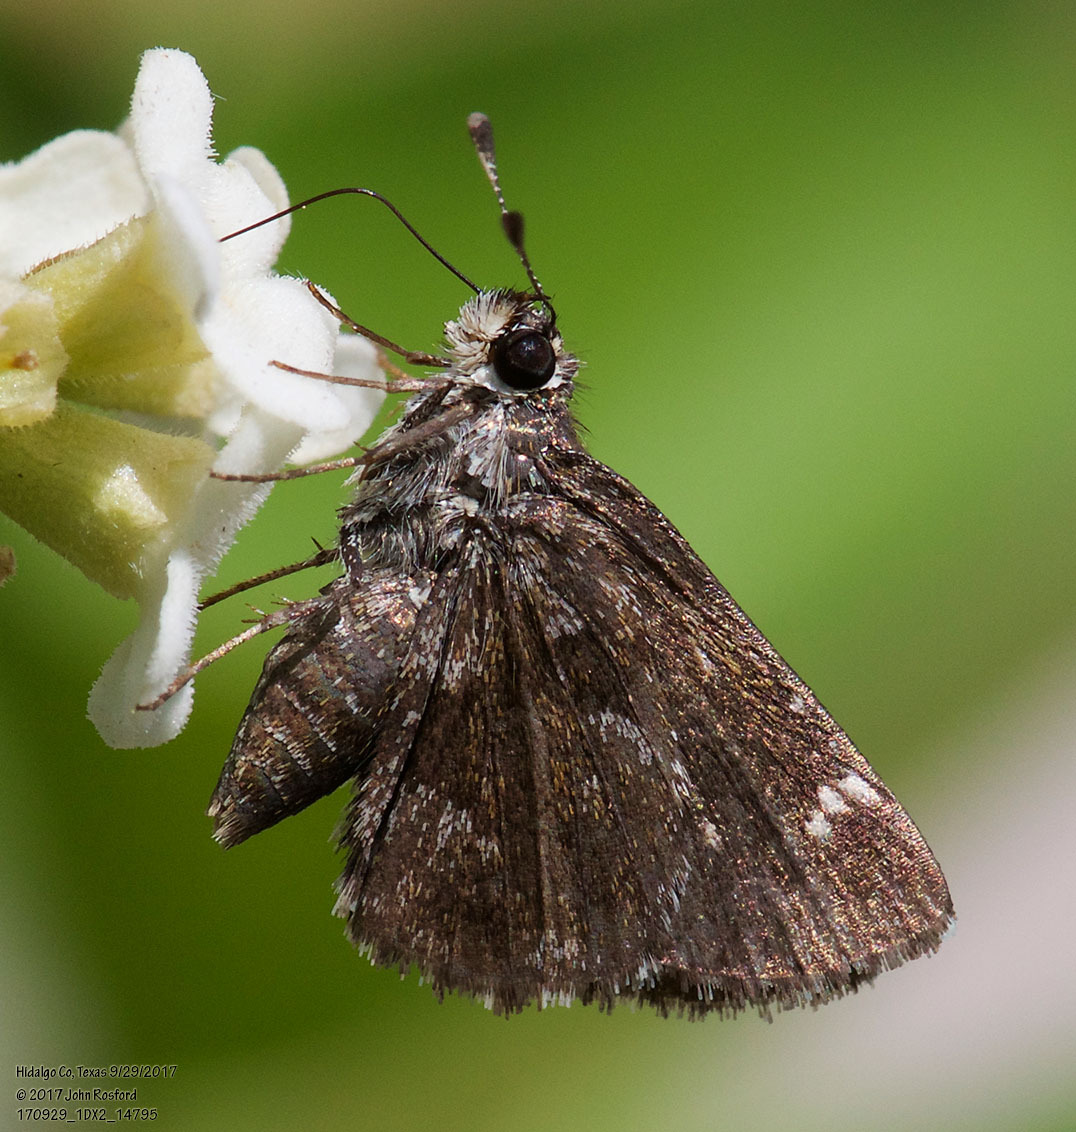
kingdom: Animalia
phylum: Arthropoda
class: Insecta
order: Lepidoptera
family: Hesperiidae
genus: Mastor
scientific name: Mastor nysa
